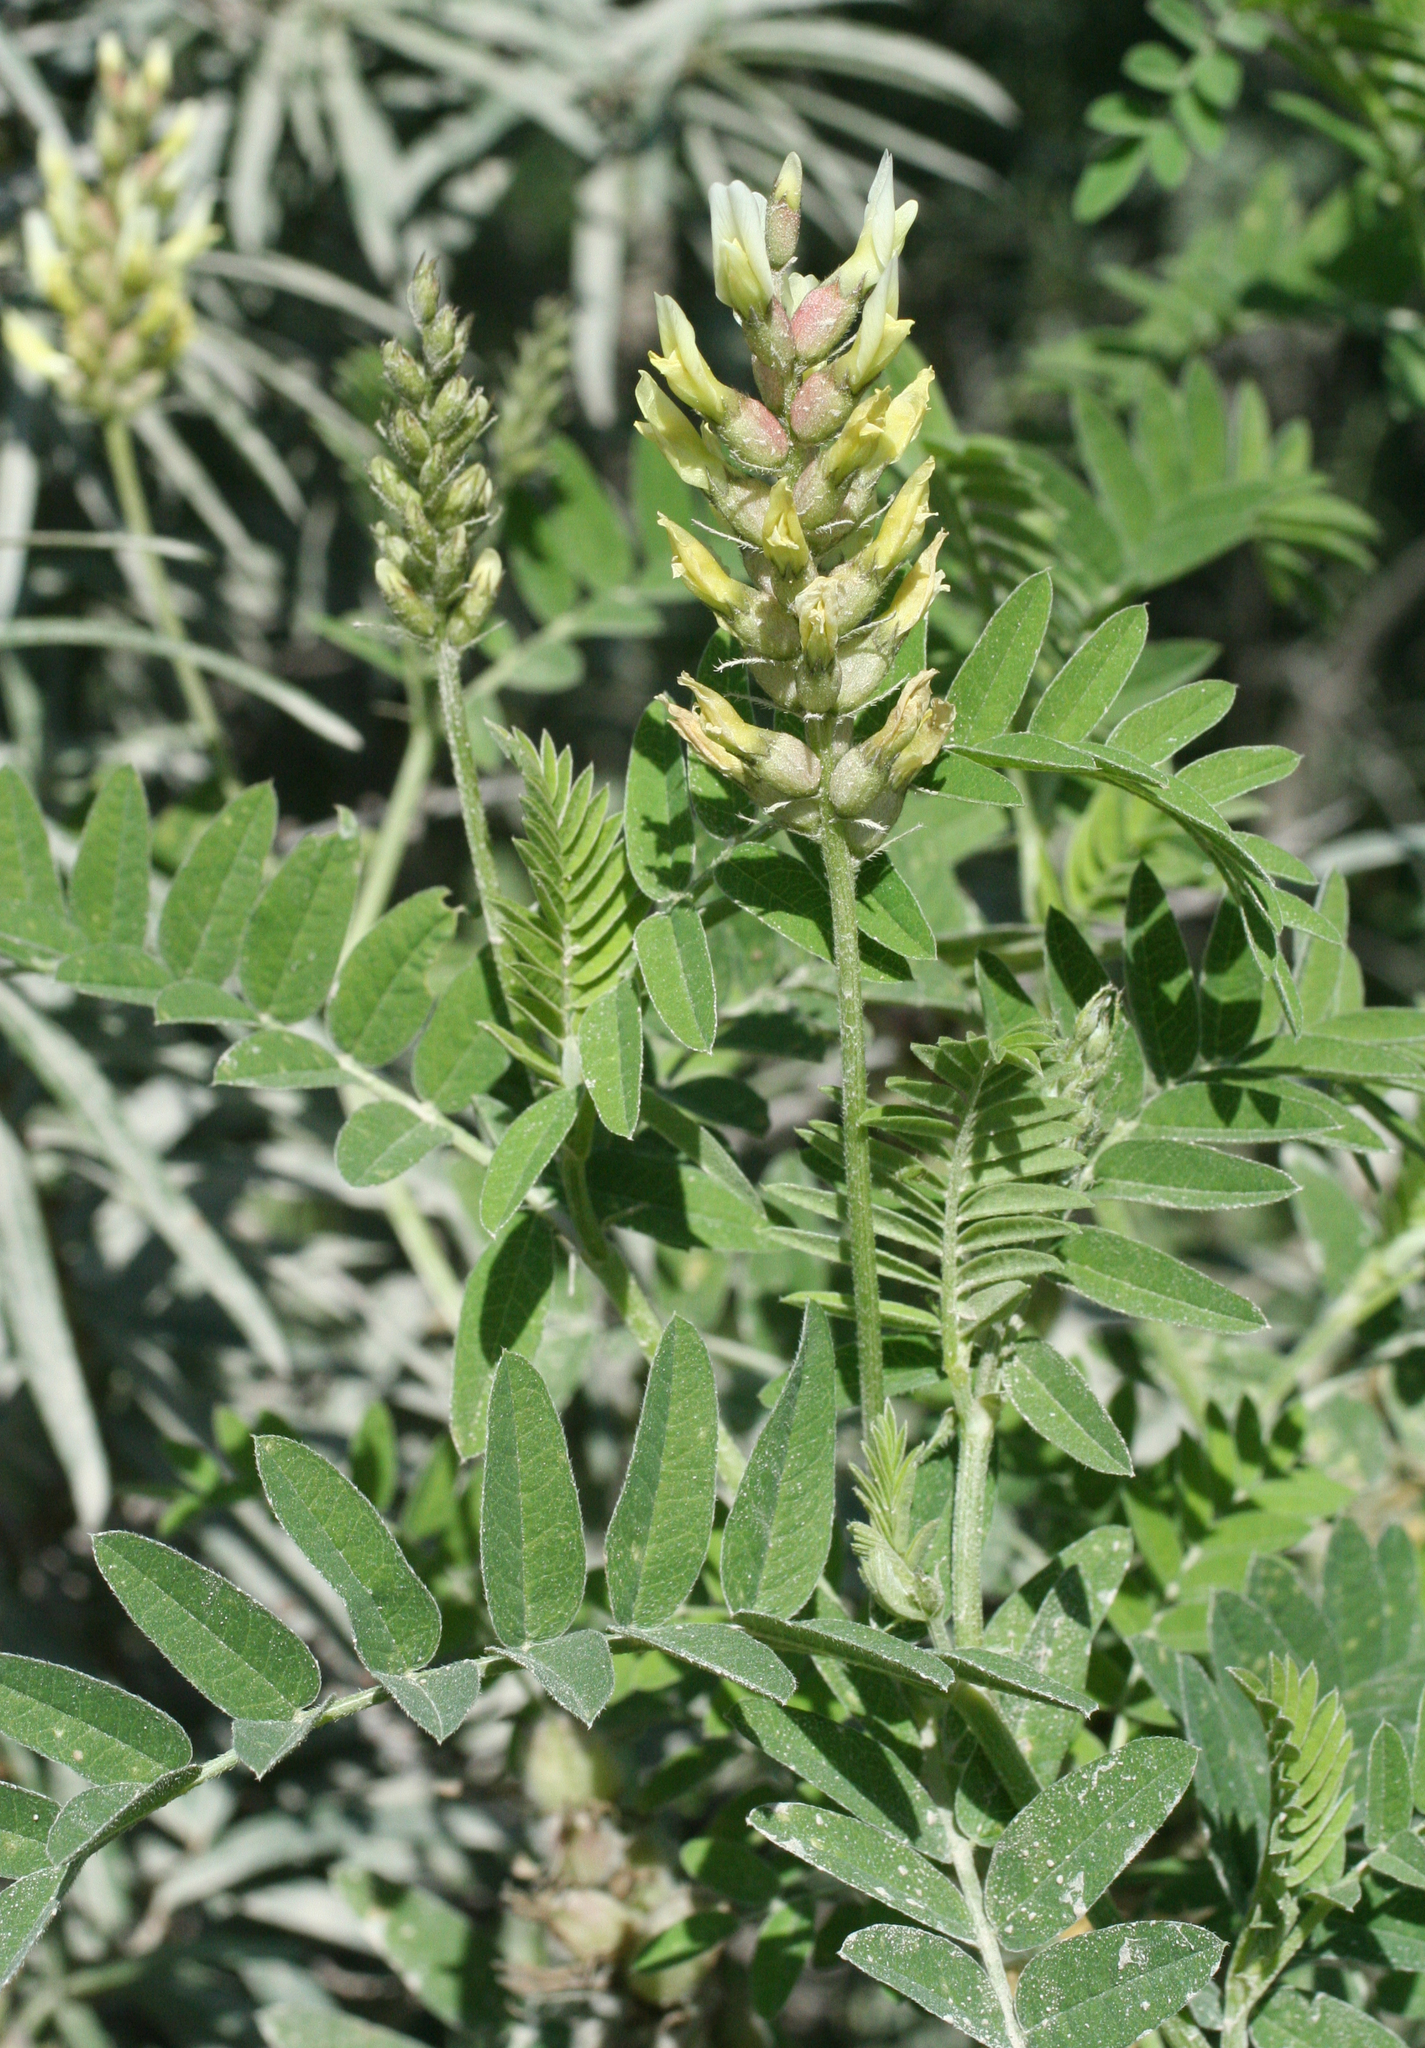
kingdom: Plantae
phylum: Tracheophyta
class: Magnoliopsida
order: Fabales
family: Fabaceae
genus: Astragalus
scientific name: Astragalus cicer
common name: Chick-pea milk-vetch
